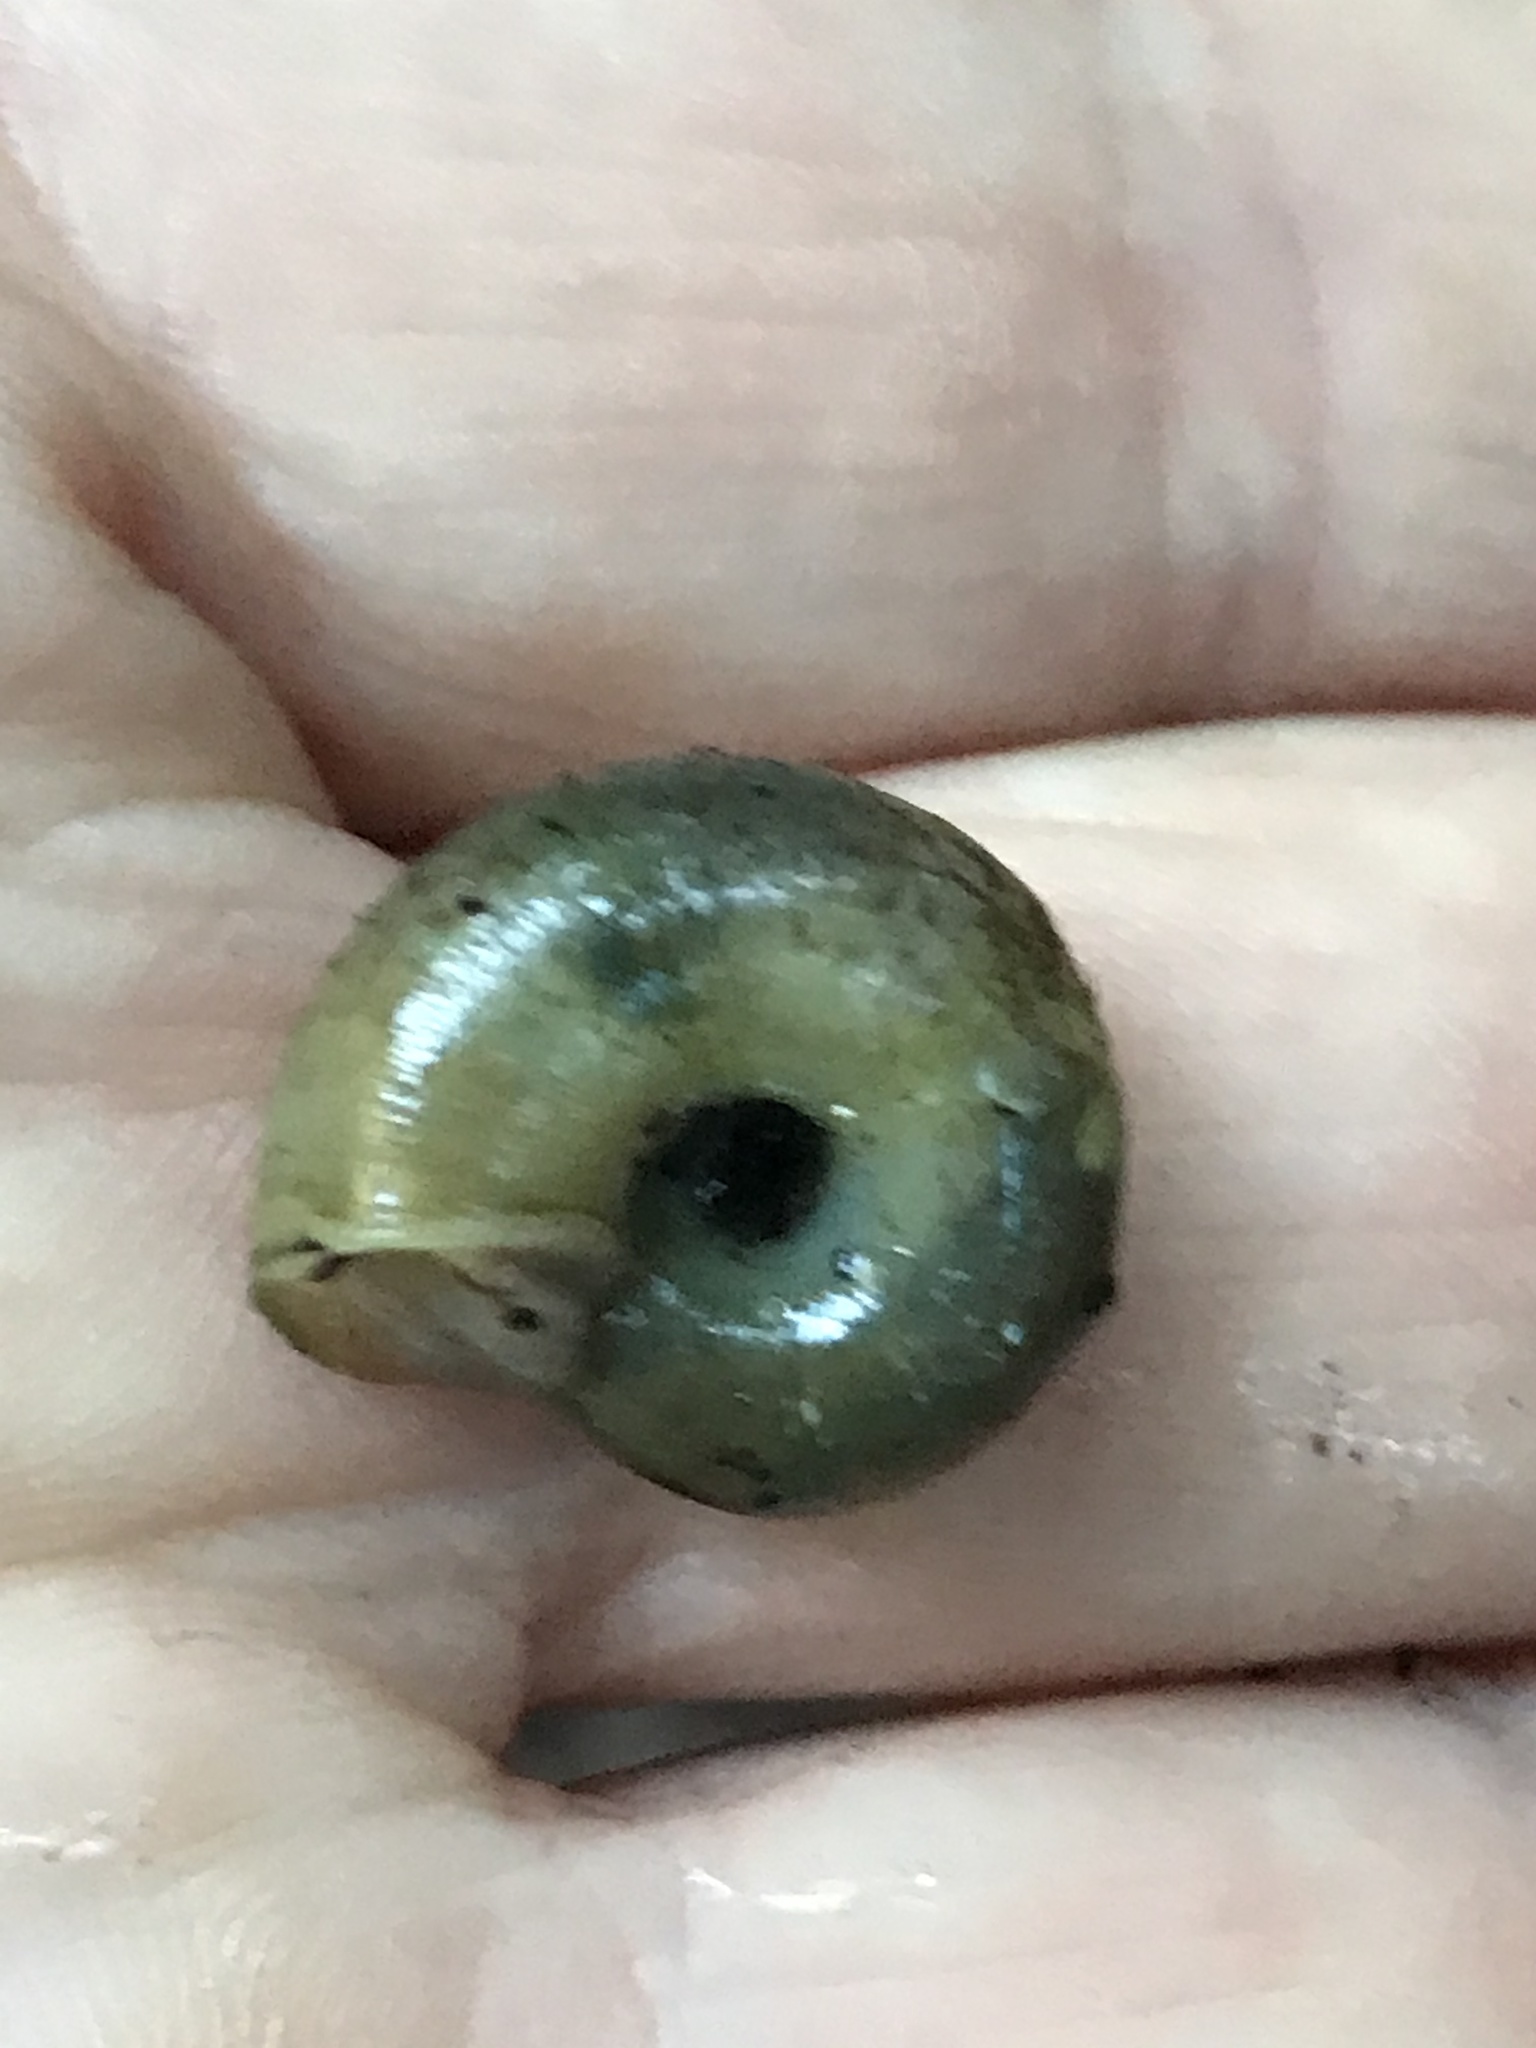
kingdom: Animalia
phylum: Mollusca
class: Gastropoda
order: Stylommatophora
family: Haplotrematidae
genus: Haplotrema
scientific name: Haplotrema minimum
